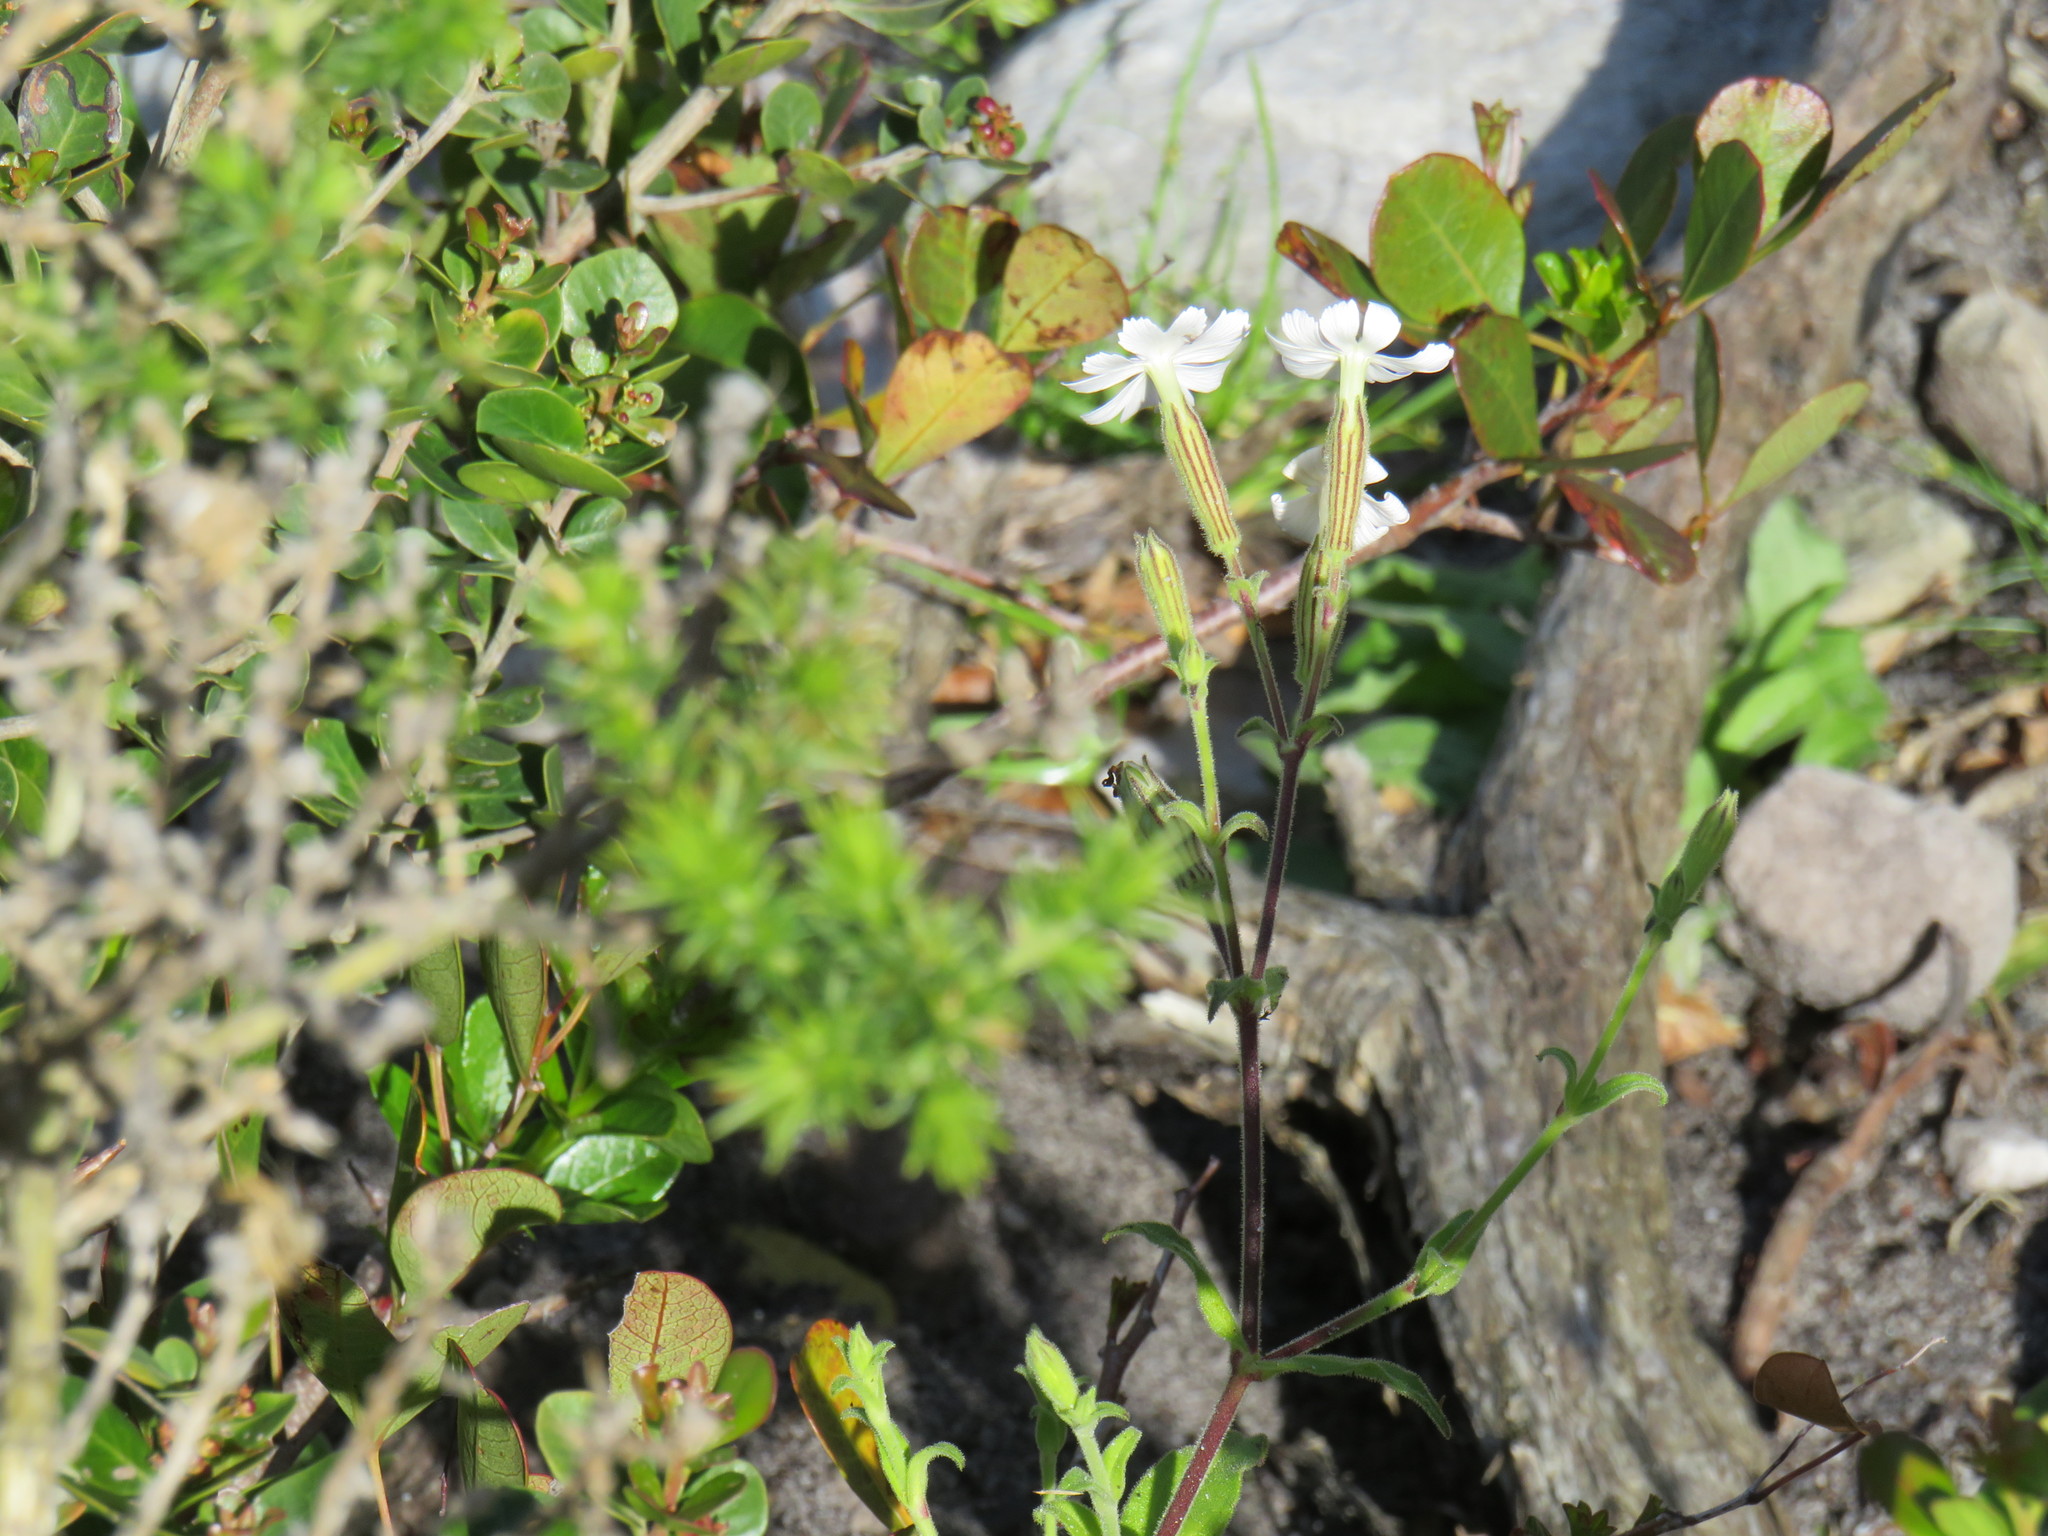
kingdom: Plantae
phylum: Tracheophyta
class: Magnoliopsida
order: Caryophyllales
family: Caryophyllaceae
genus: Silene
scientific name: Silene undulata
